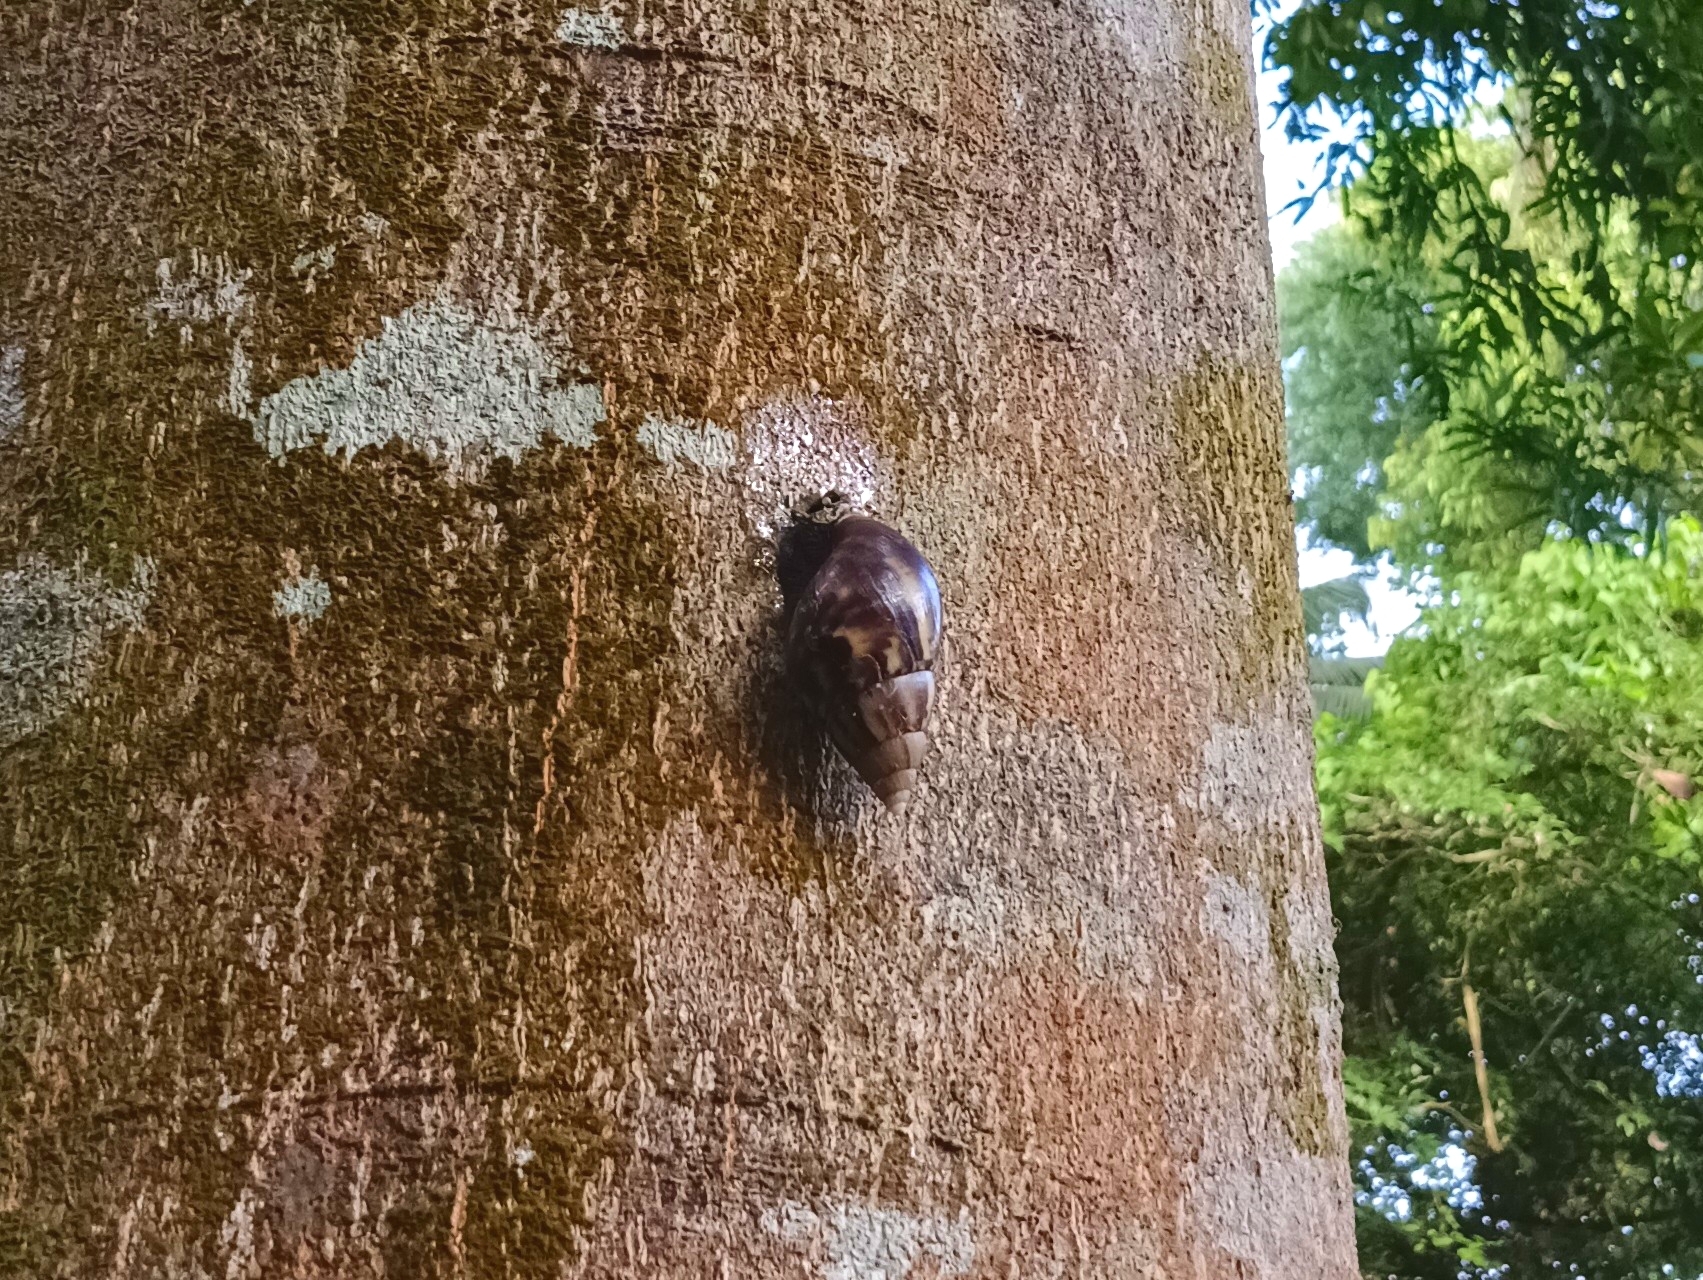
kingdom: Animalia
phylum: Mollusca
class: Gastropoda
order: Stylommatophora
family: Achatinidae
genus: Lissachatina
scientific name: Lissachatina fulica
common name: Giant african snail
